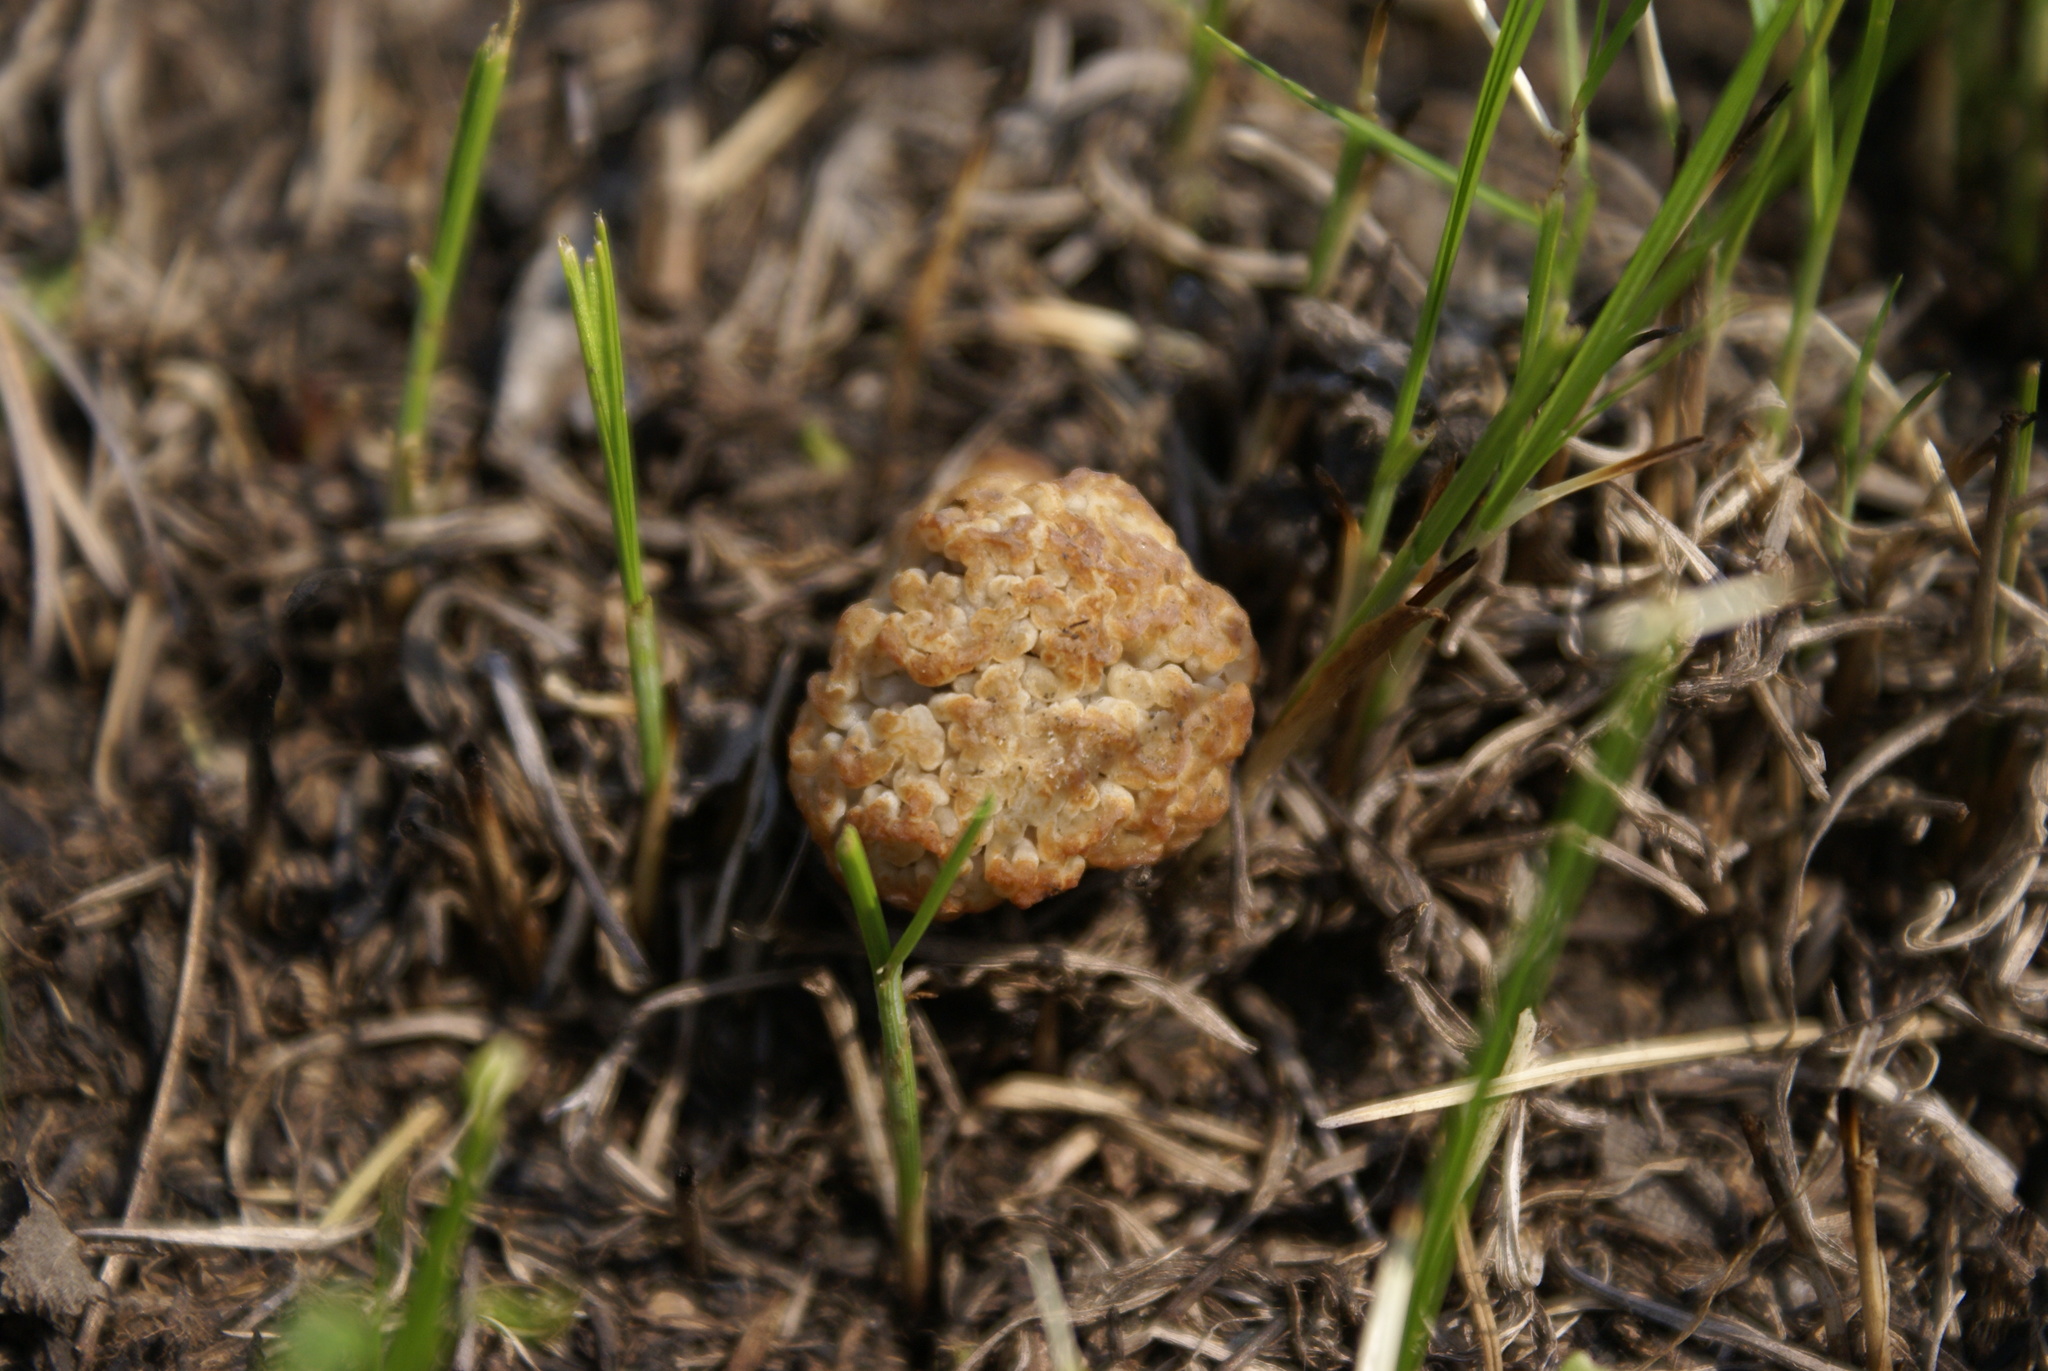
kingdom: Fungi
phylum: Ascomycota
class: Pezizomycetes
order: Pezizales
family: Morchellaceae
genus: Morchella
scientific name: Morchella steppicola
